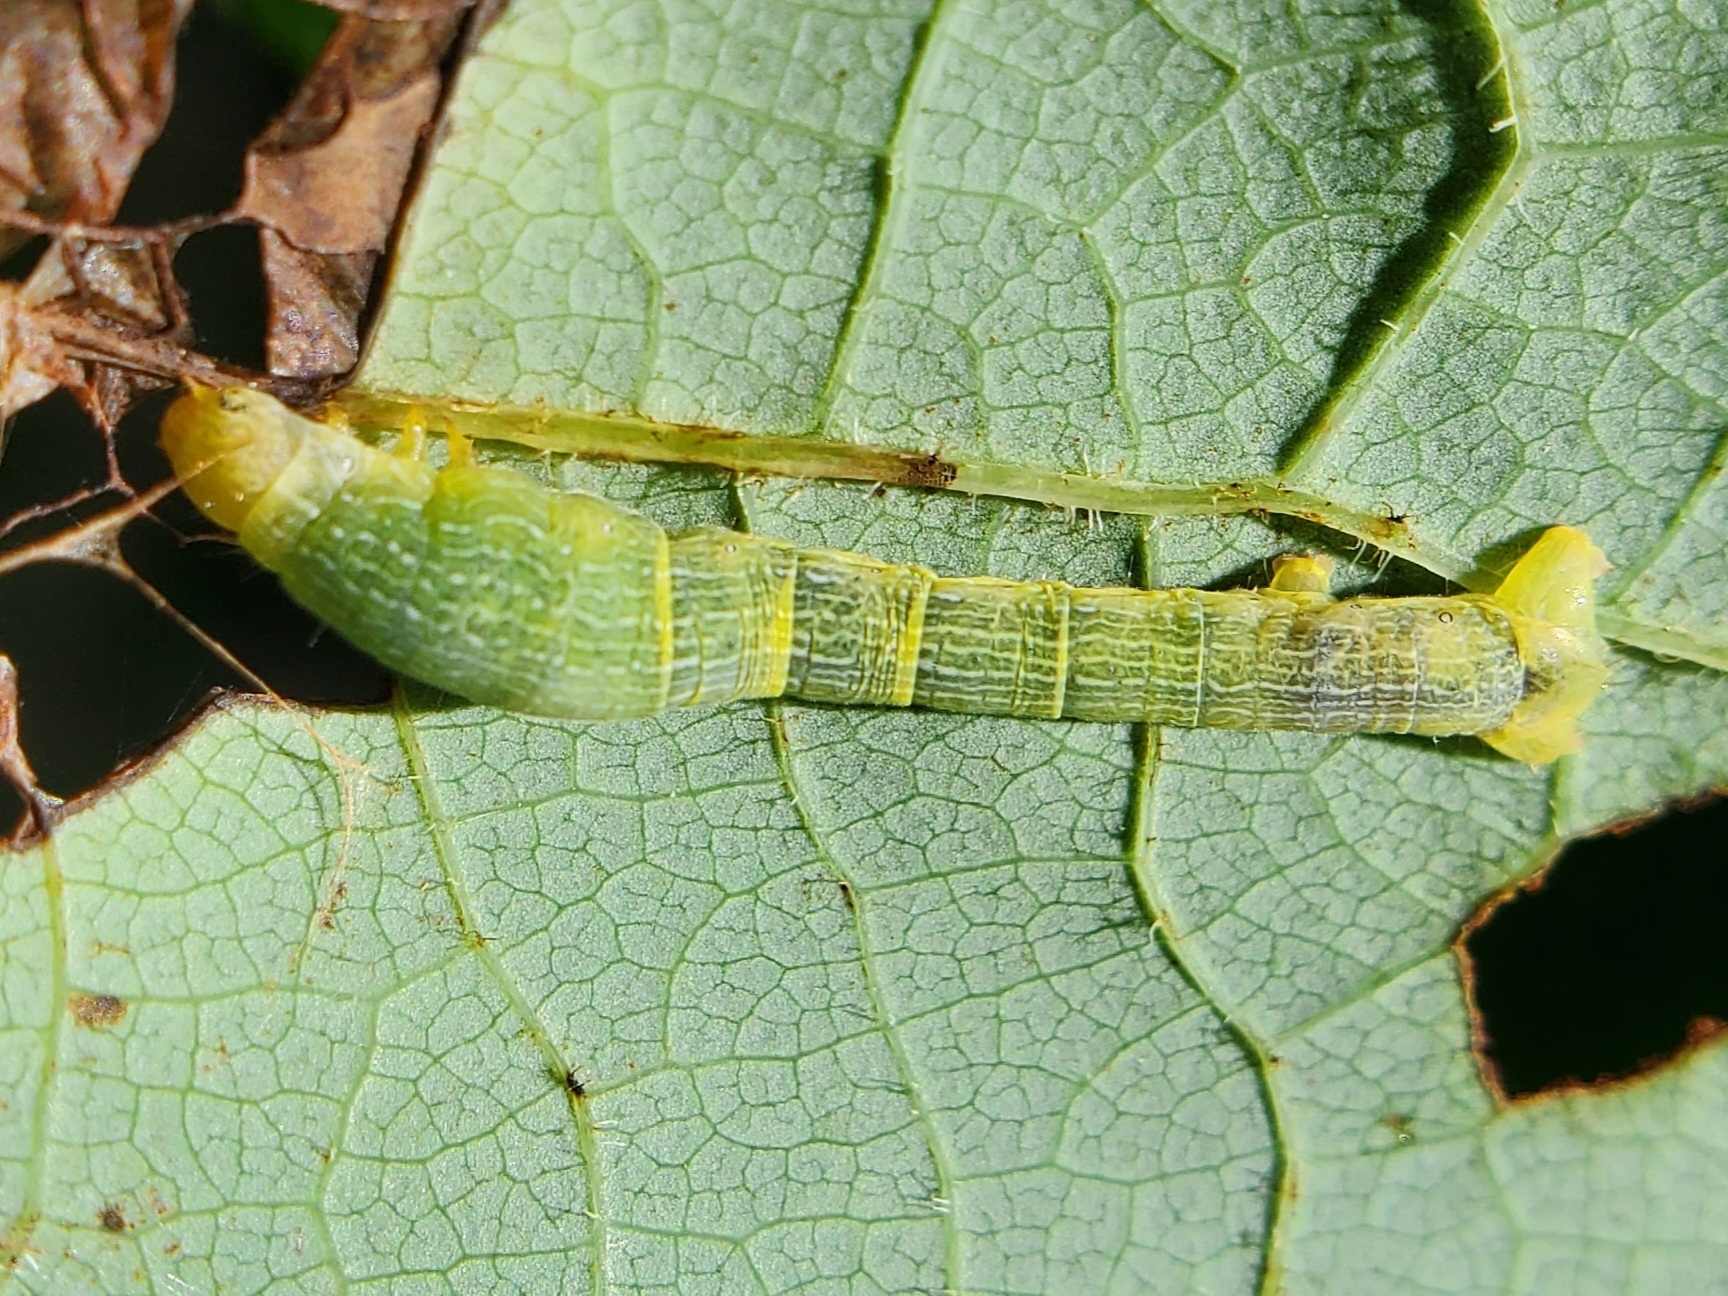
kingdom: Animalia
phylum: Arthropoda
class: Insecta
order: Lepidoptera
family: Geometridae
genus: Epimecis
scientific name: Epimecis hortaria
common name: Tulip-tree beauty
